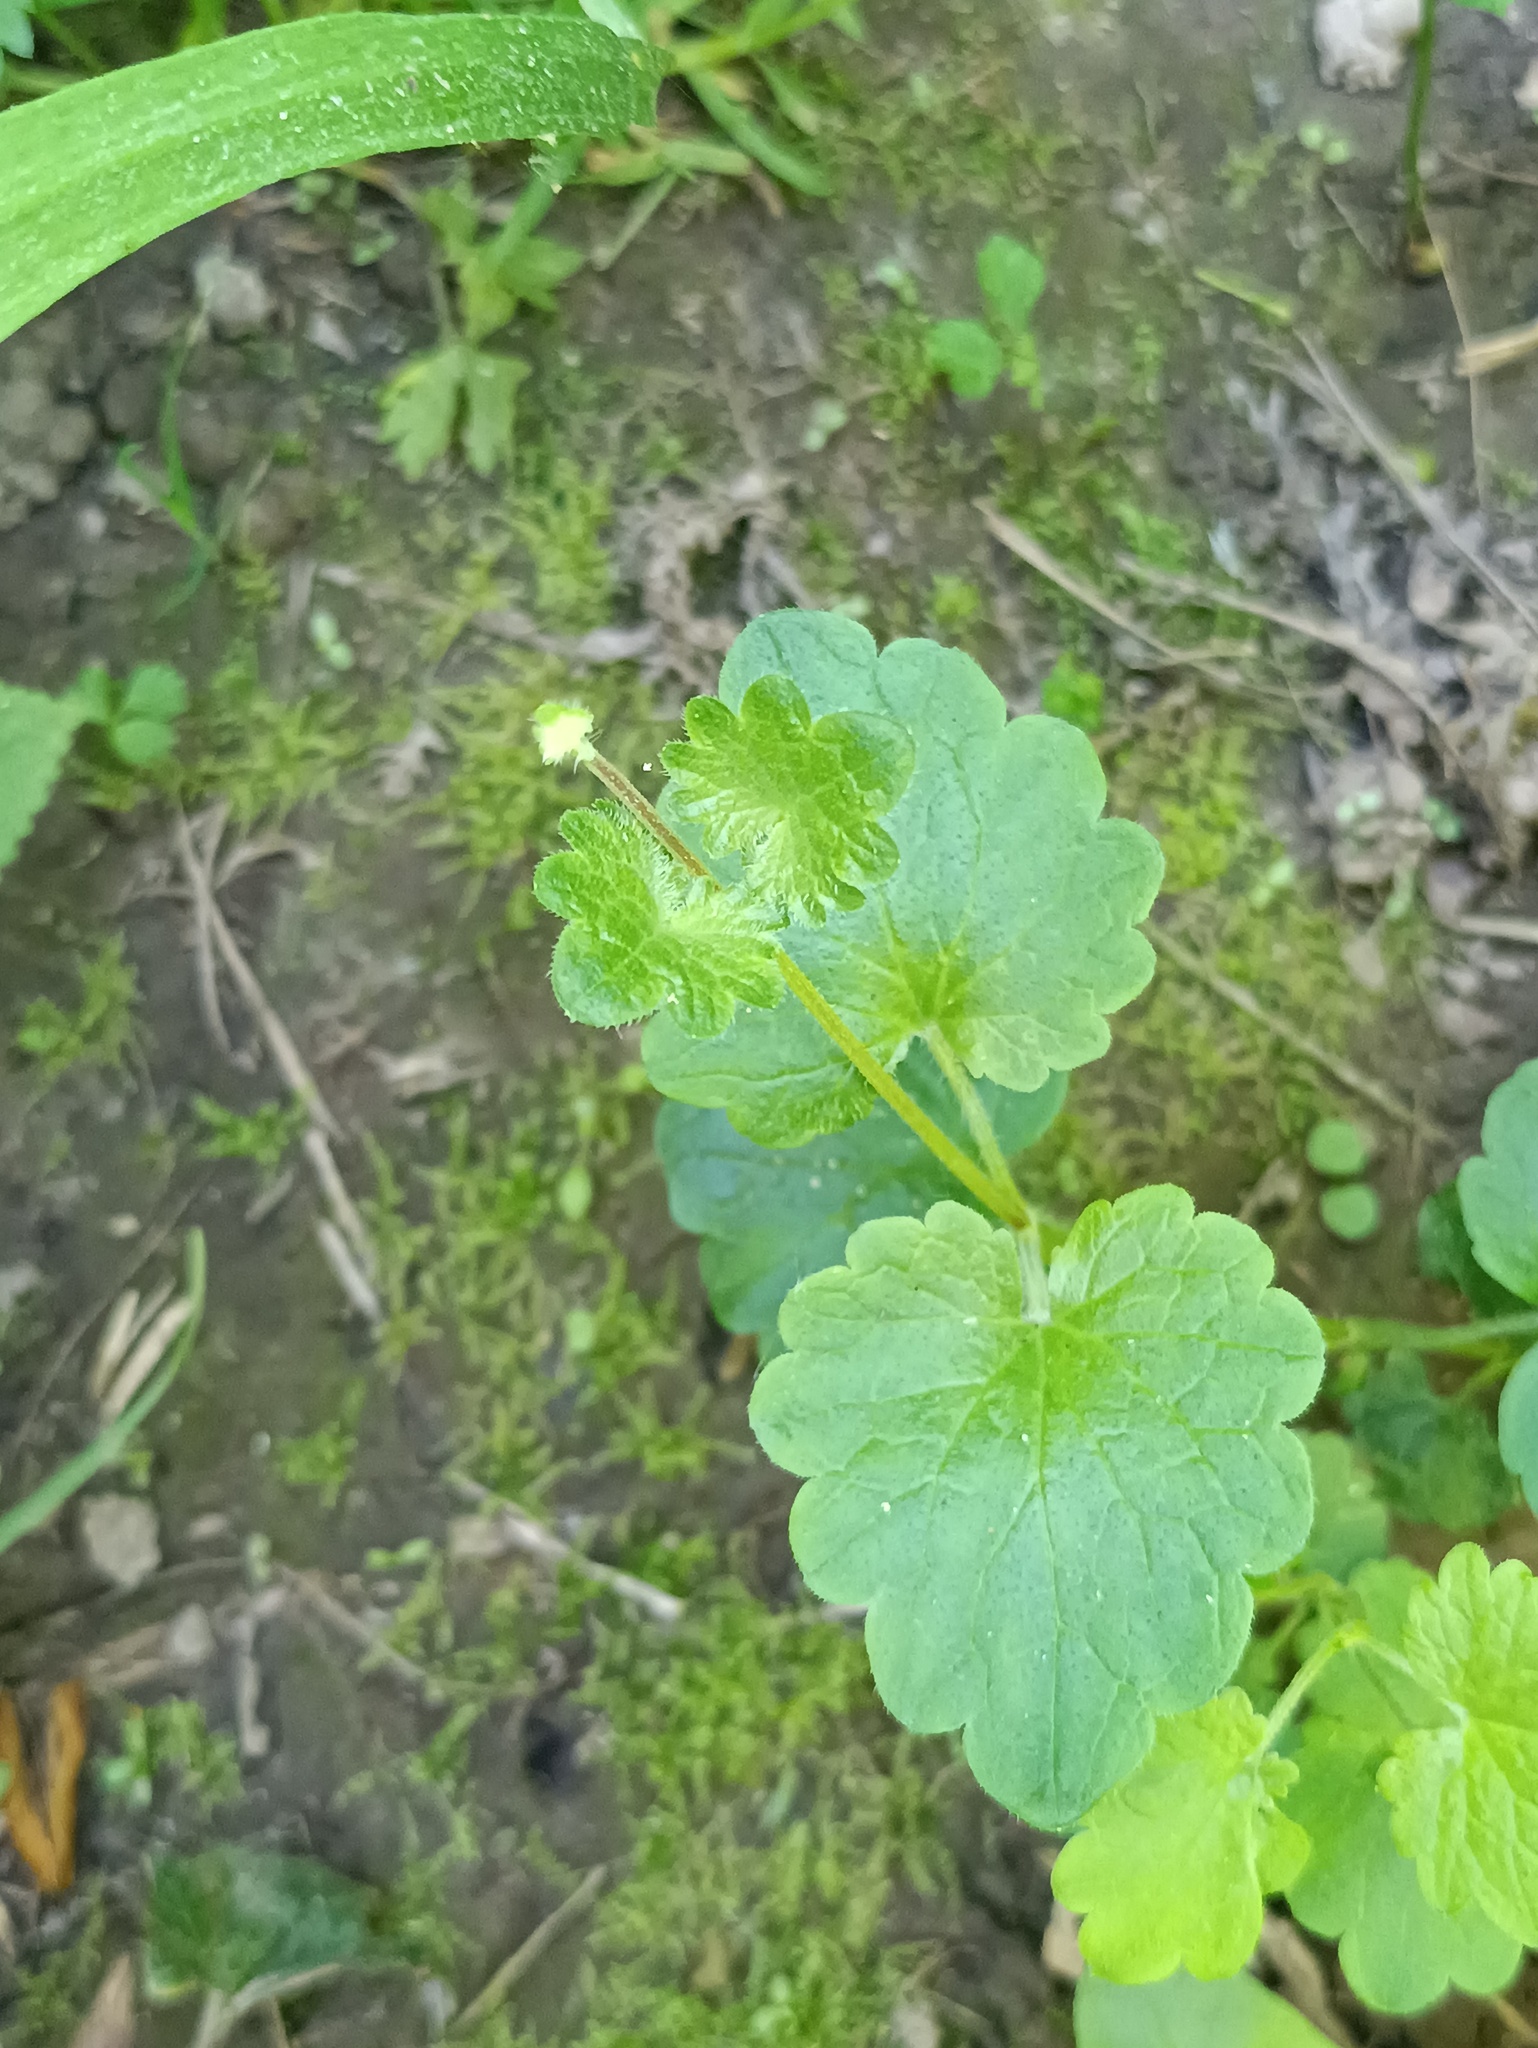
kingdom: Plantae
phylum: Tracheophyta
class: Magnoliopsida
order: Lamiales
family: Lamiaceae
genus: Glechoma
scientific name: Glechoma hederacea
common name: Ground ivy
